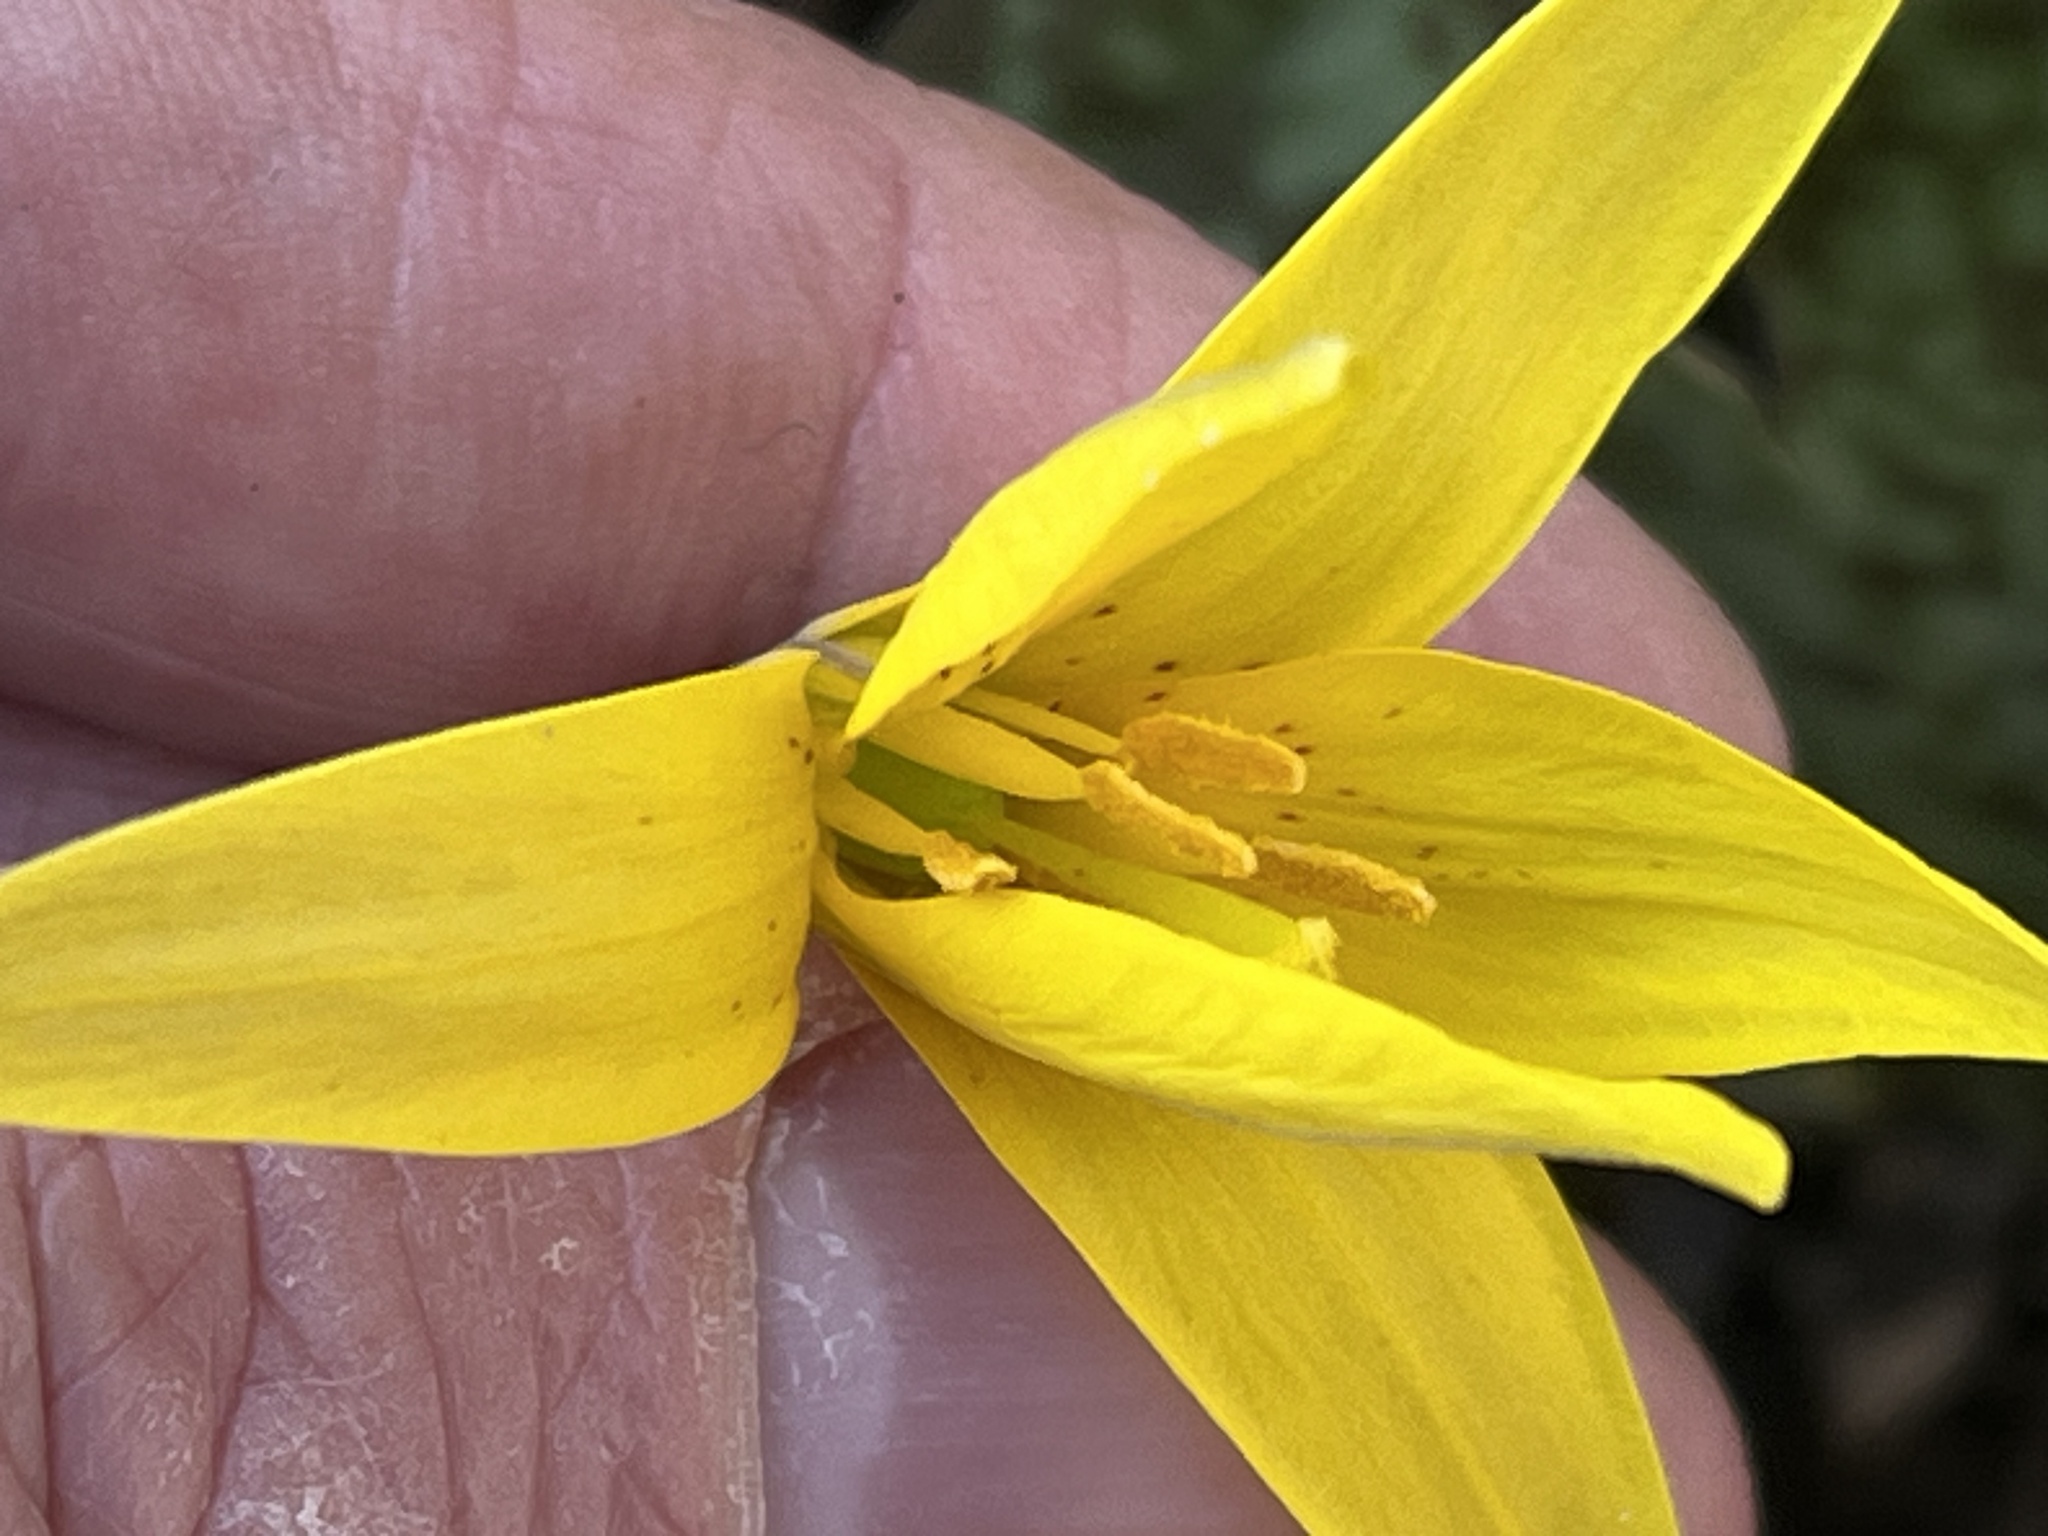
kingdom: Plantae
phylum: Tracheophyta
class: Liliopsida
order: Liliales
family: Liliaceae
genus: Erythronium
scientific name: Erythronium americanum
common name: Yellow adder's-tongue
